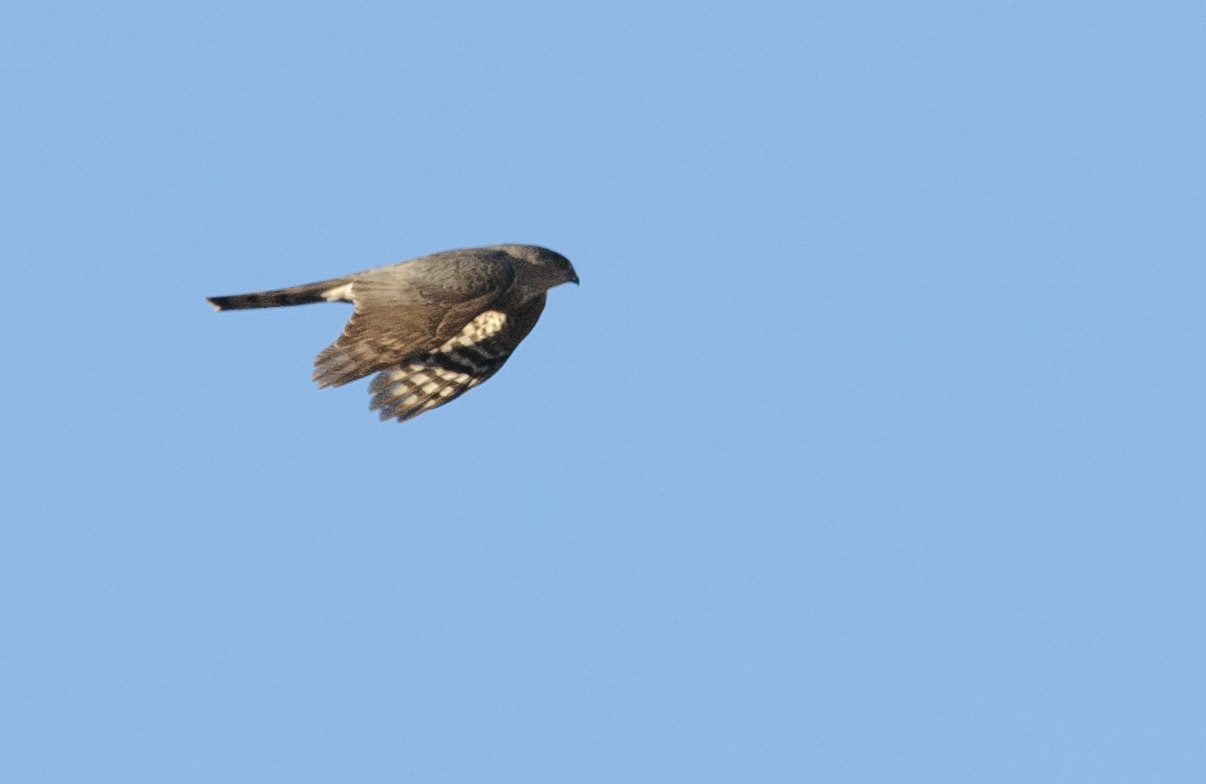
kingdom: Animalia
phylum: Chordata
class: Aves
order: Accipitriformes
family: Accipitridae
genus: Accipiter
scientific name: Accipiter striatus
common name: Sharp-shinned hawk
